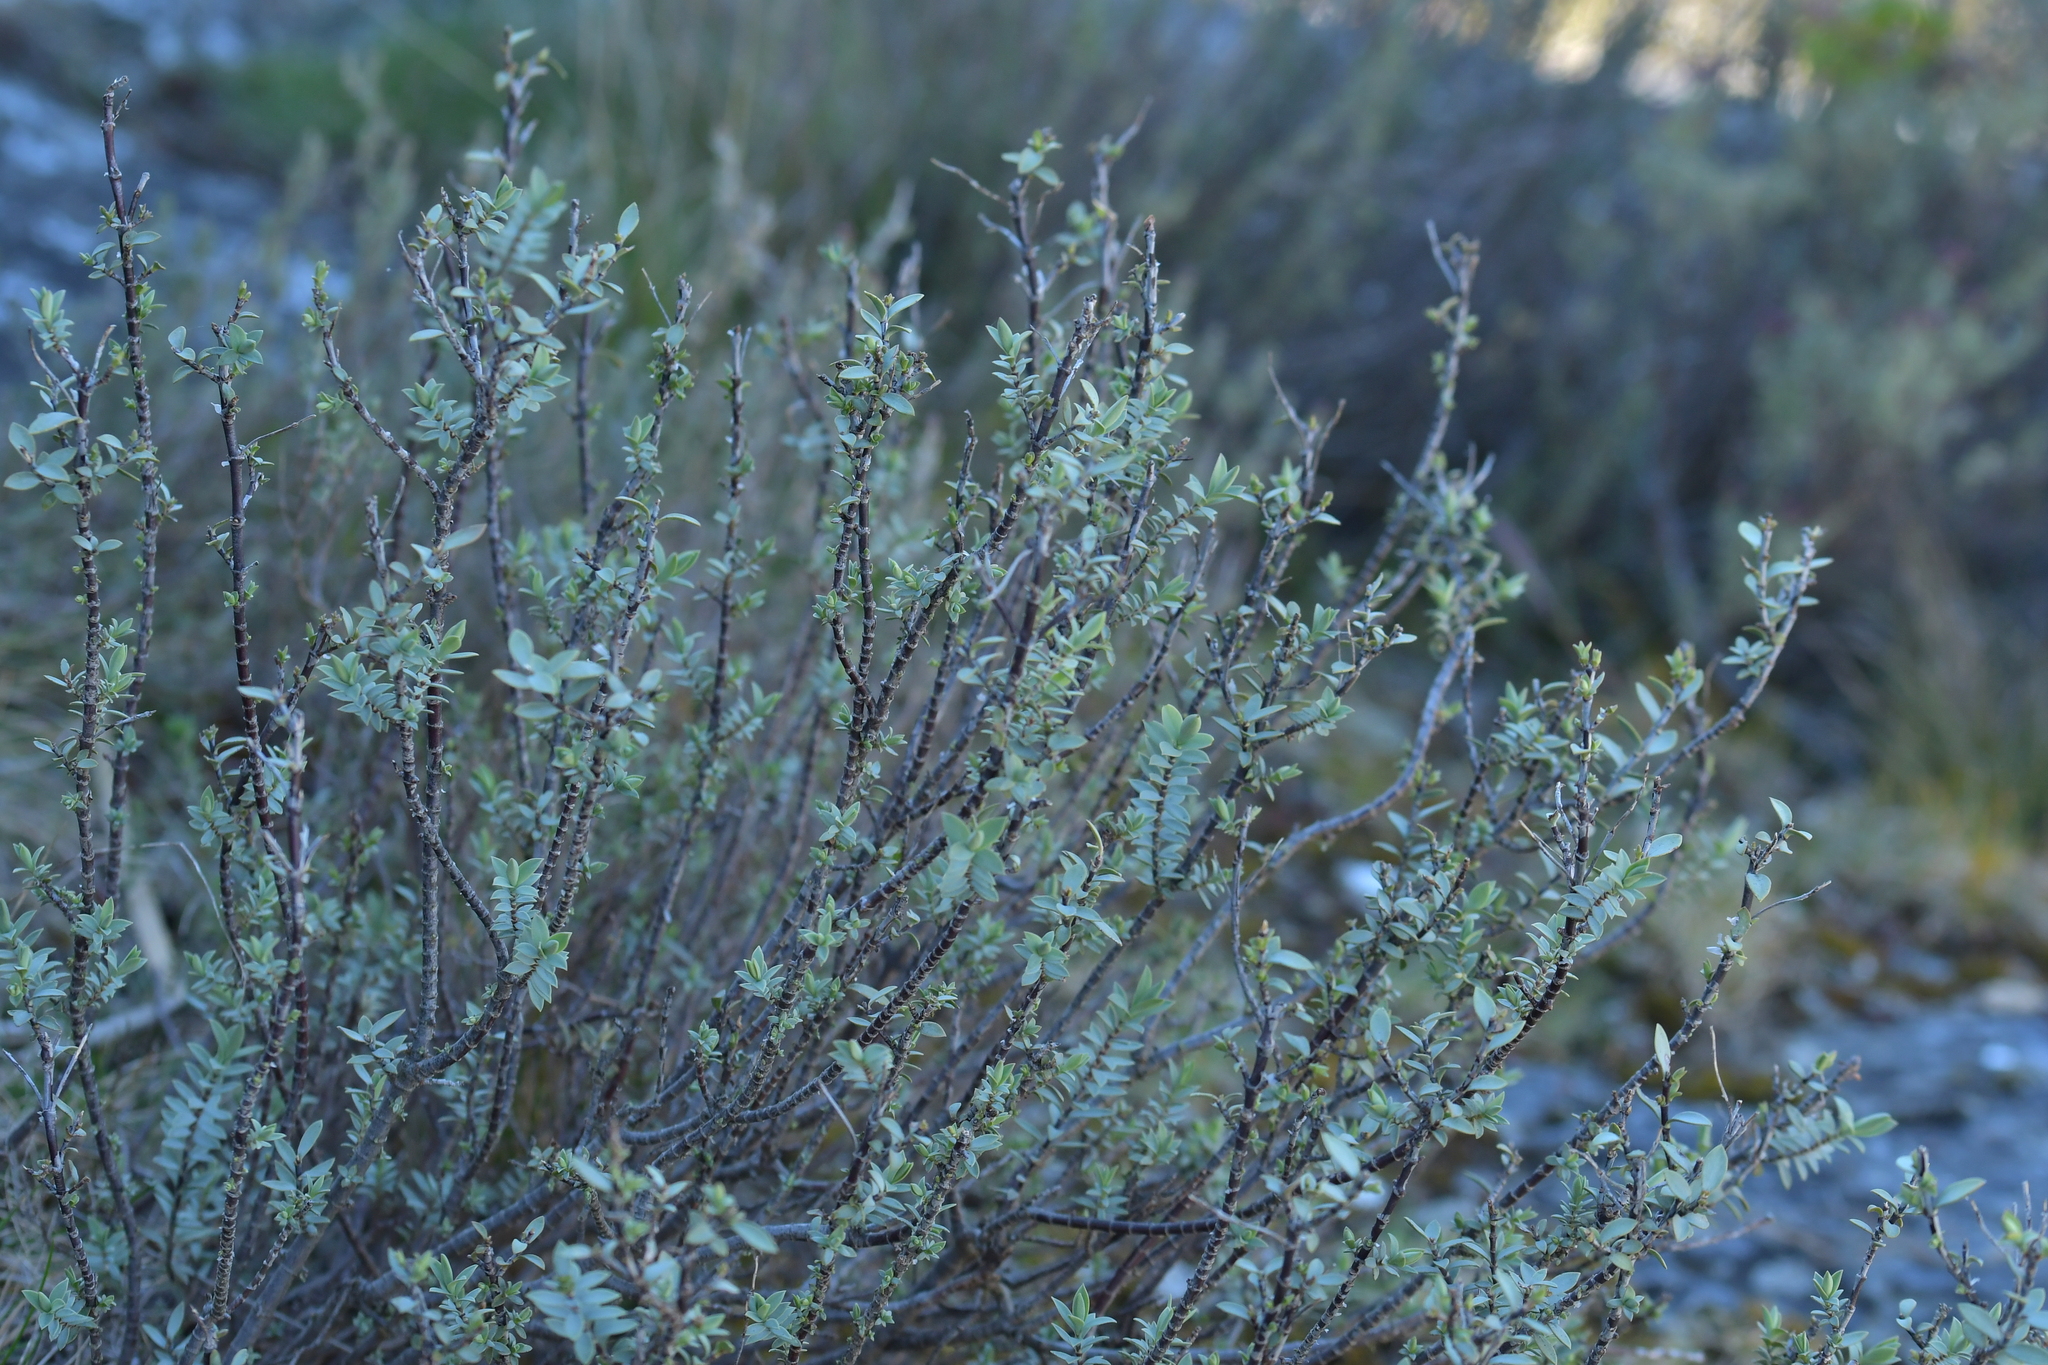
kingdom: Plantae
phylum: Tracheophyta
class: Magnoliopsida
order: Lamiales
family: Plantaginaceae
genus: Veronica
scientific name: Veronica pimeleoides
